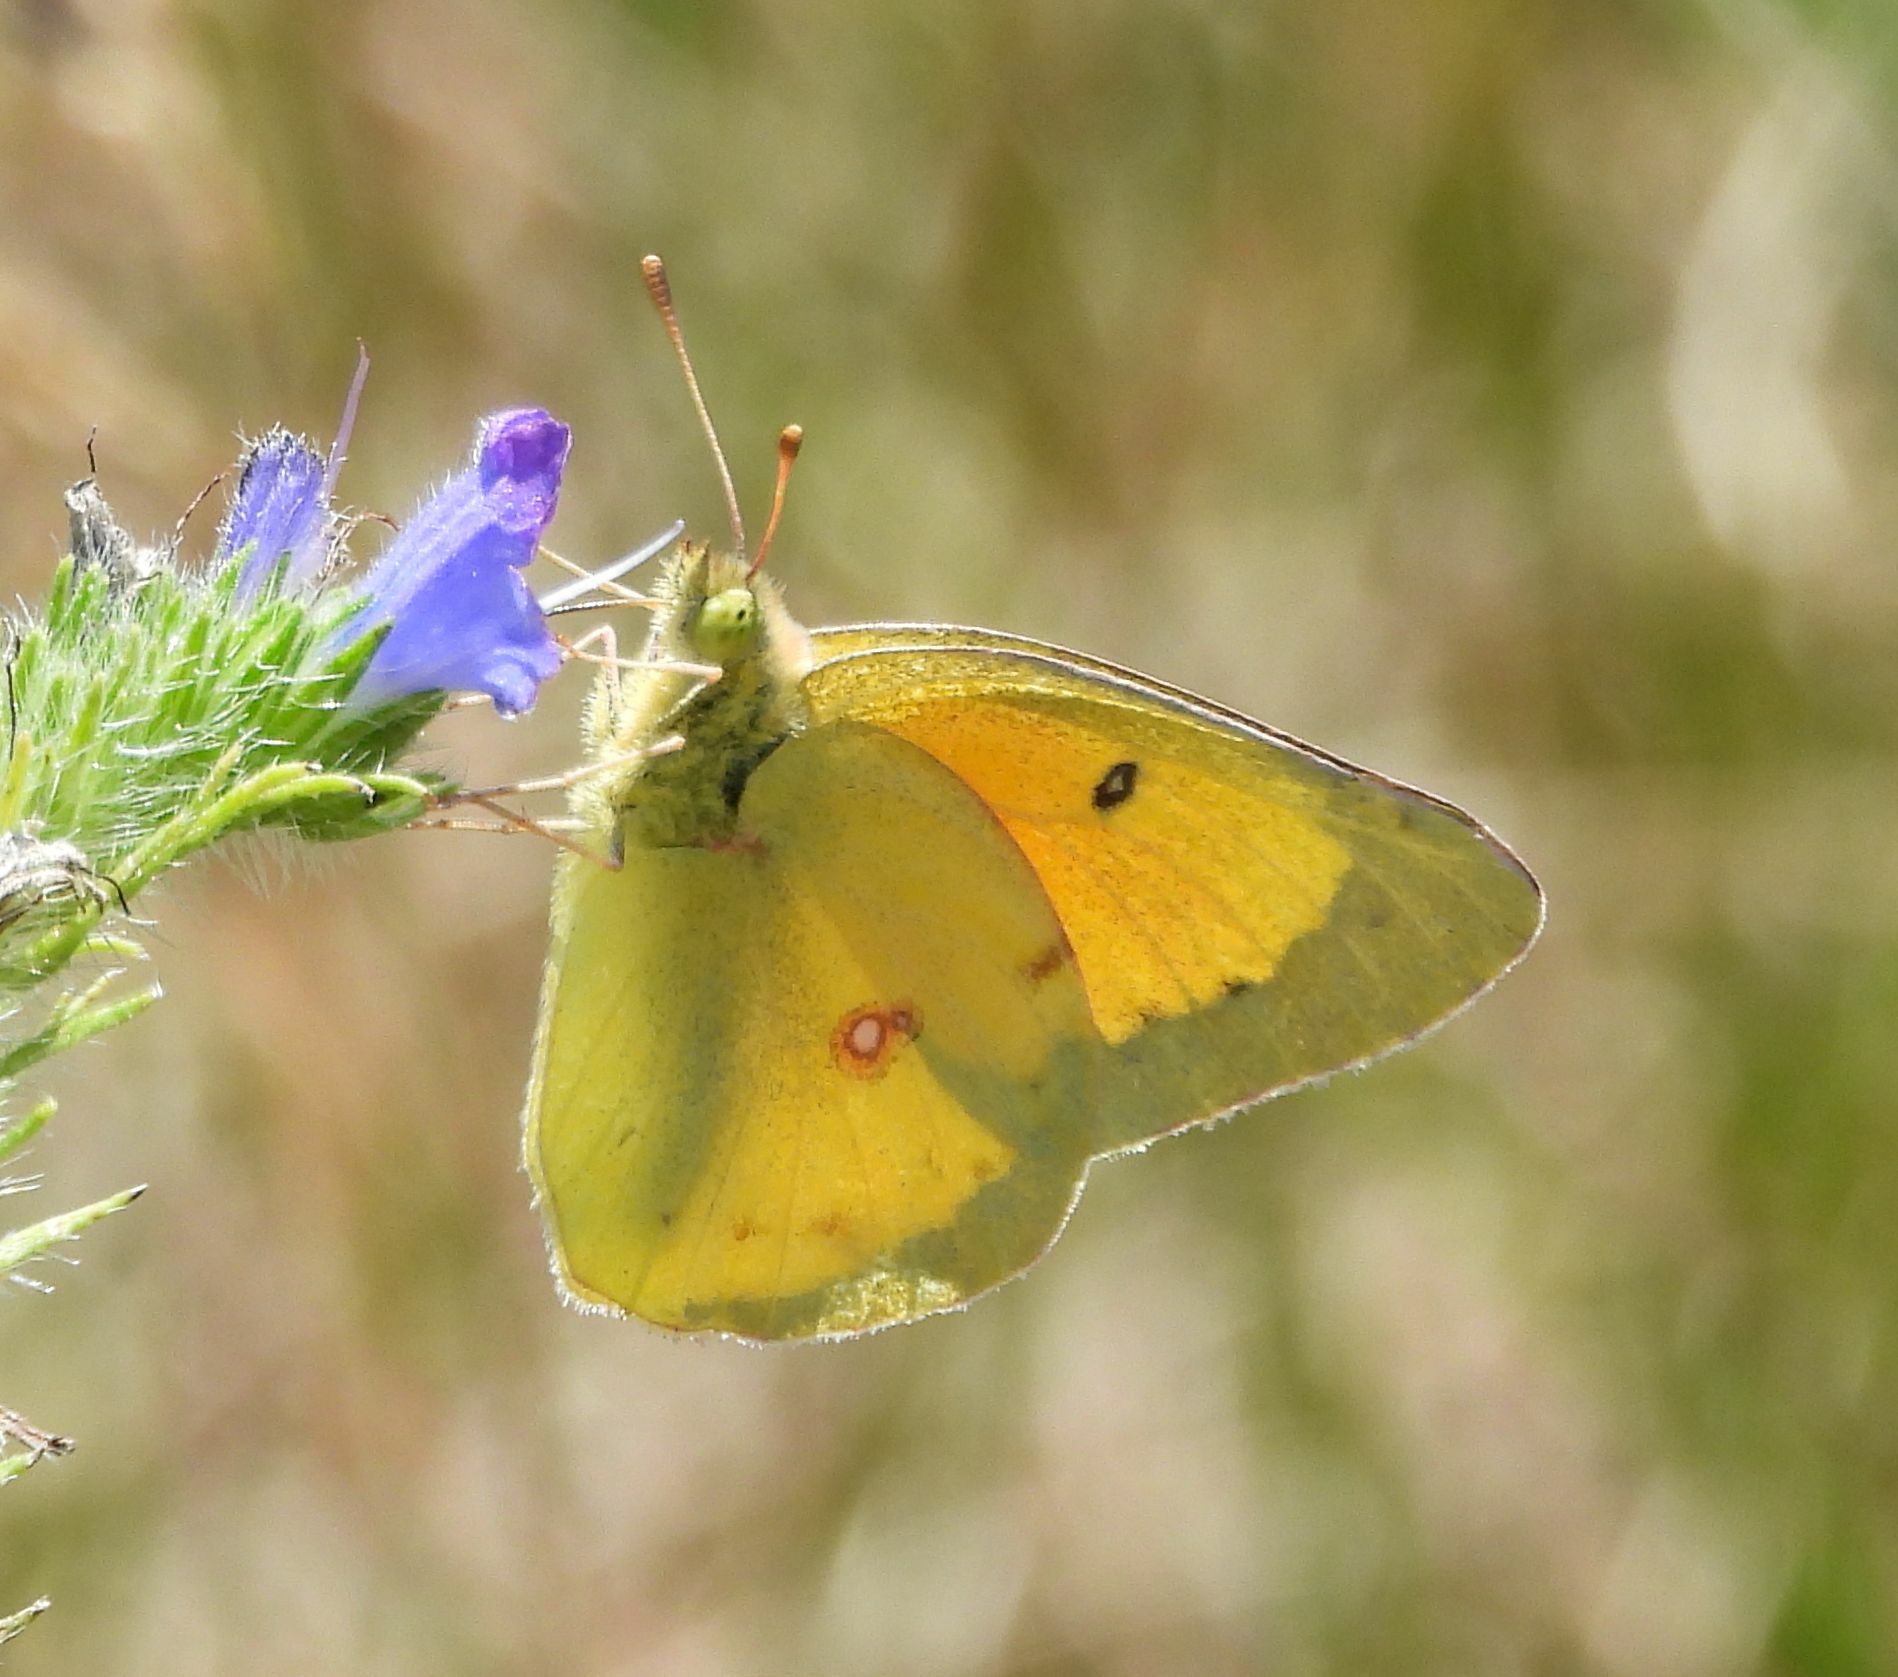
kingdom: Animalia
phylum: Arthropoda
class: Insecta
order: Lepidoptera
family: Pieridae
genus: Colias
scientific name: Colias eurytheme
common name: Alfalfa butterfly
